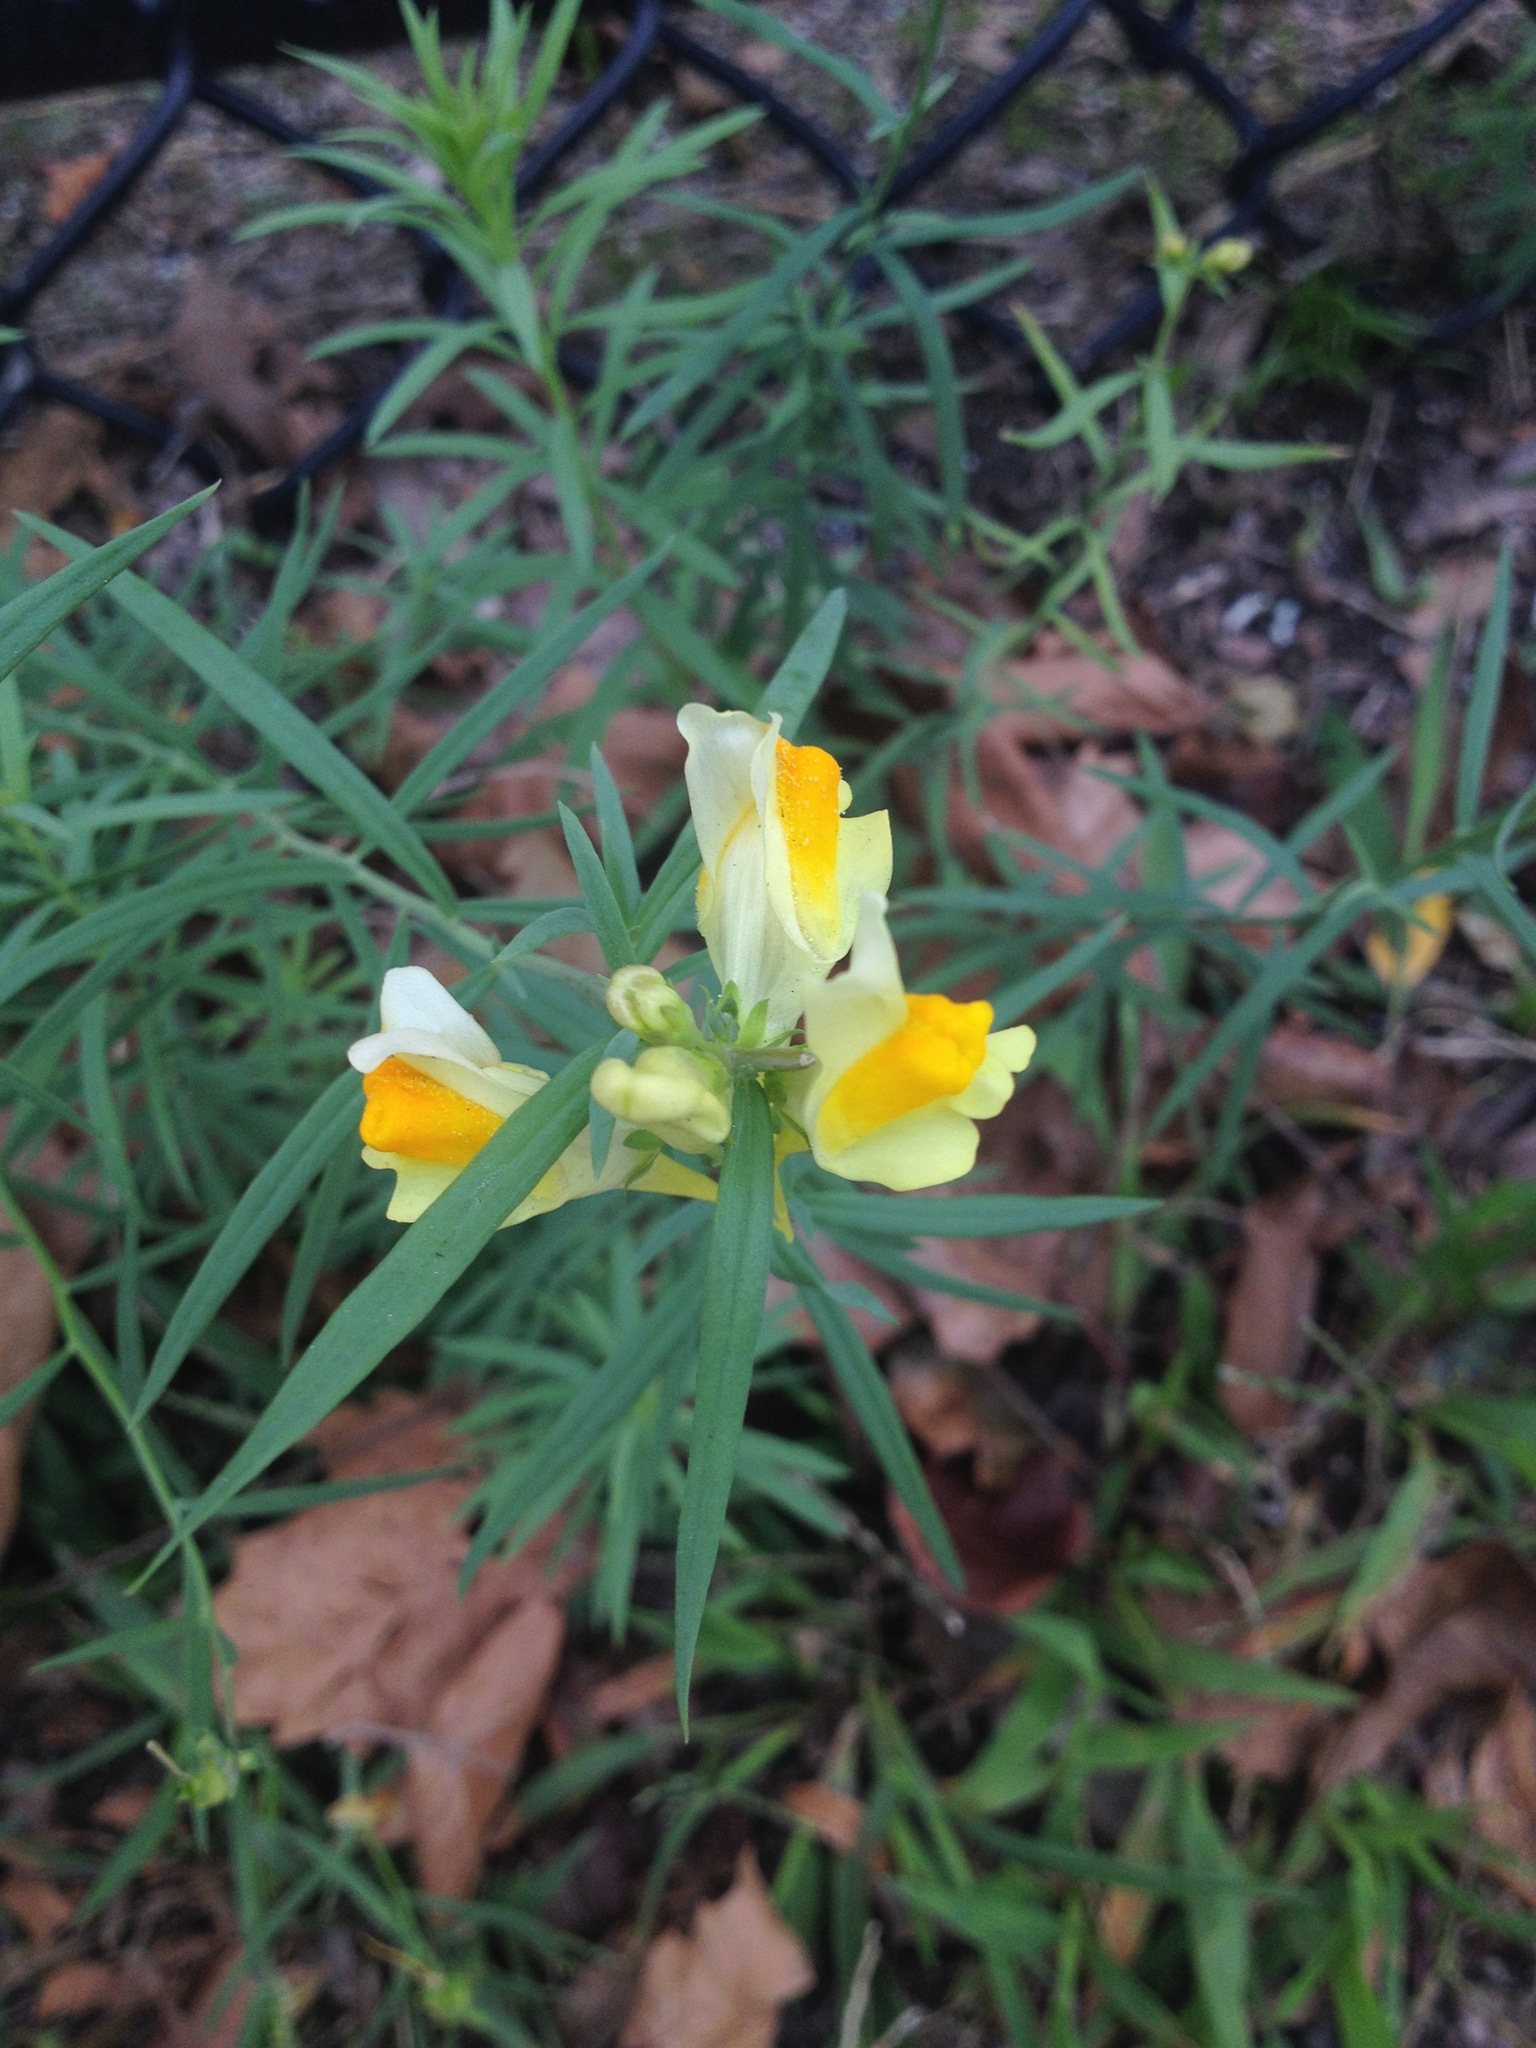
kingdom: Plantae
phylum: Tracheophyta
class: Magnoliopsida
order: Lamiales
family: Plantaginaceae
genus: Linaria
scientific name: Linaria vulgaris
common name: Butter and eggs
